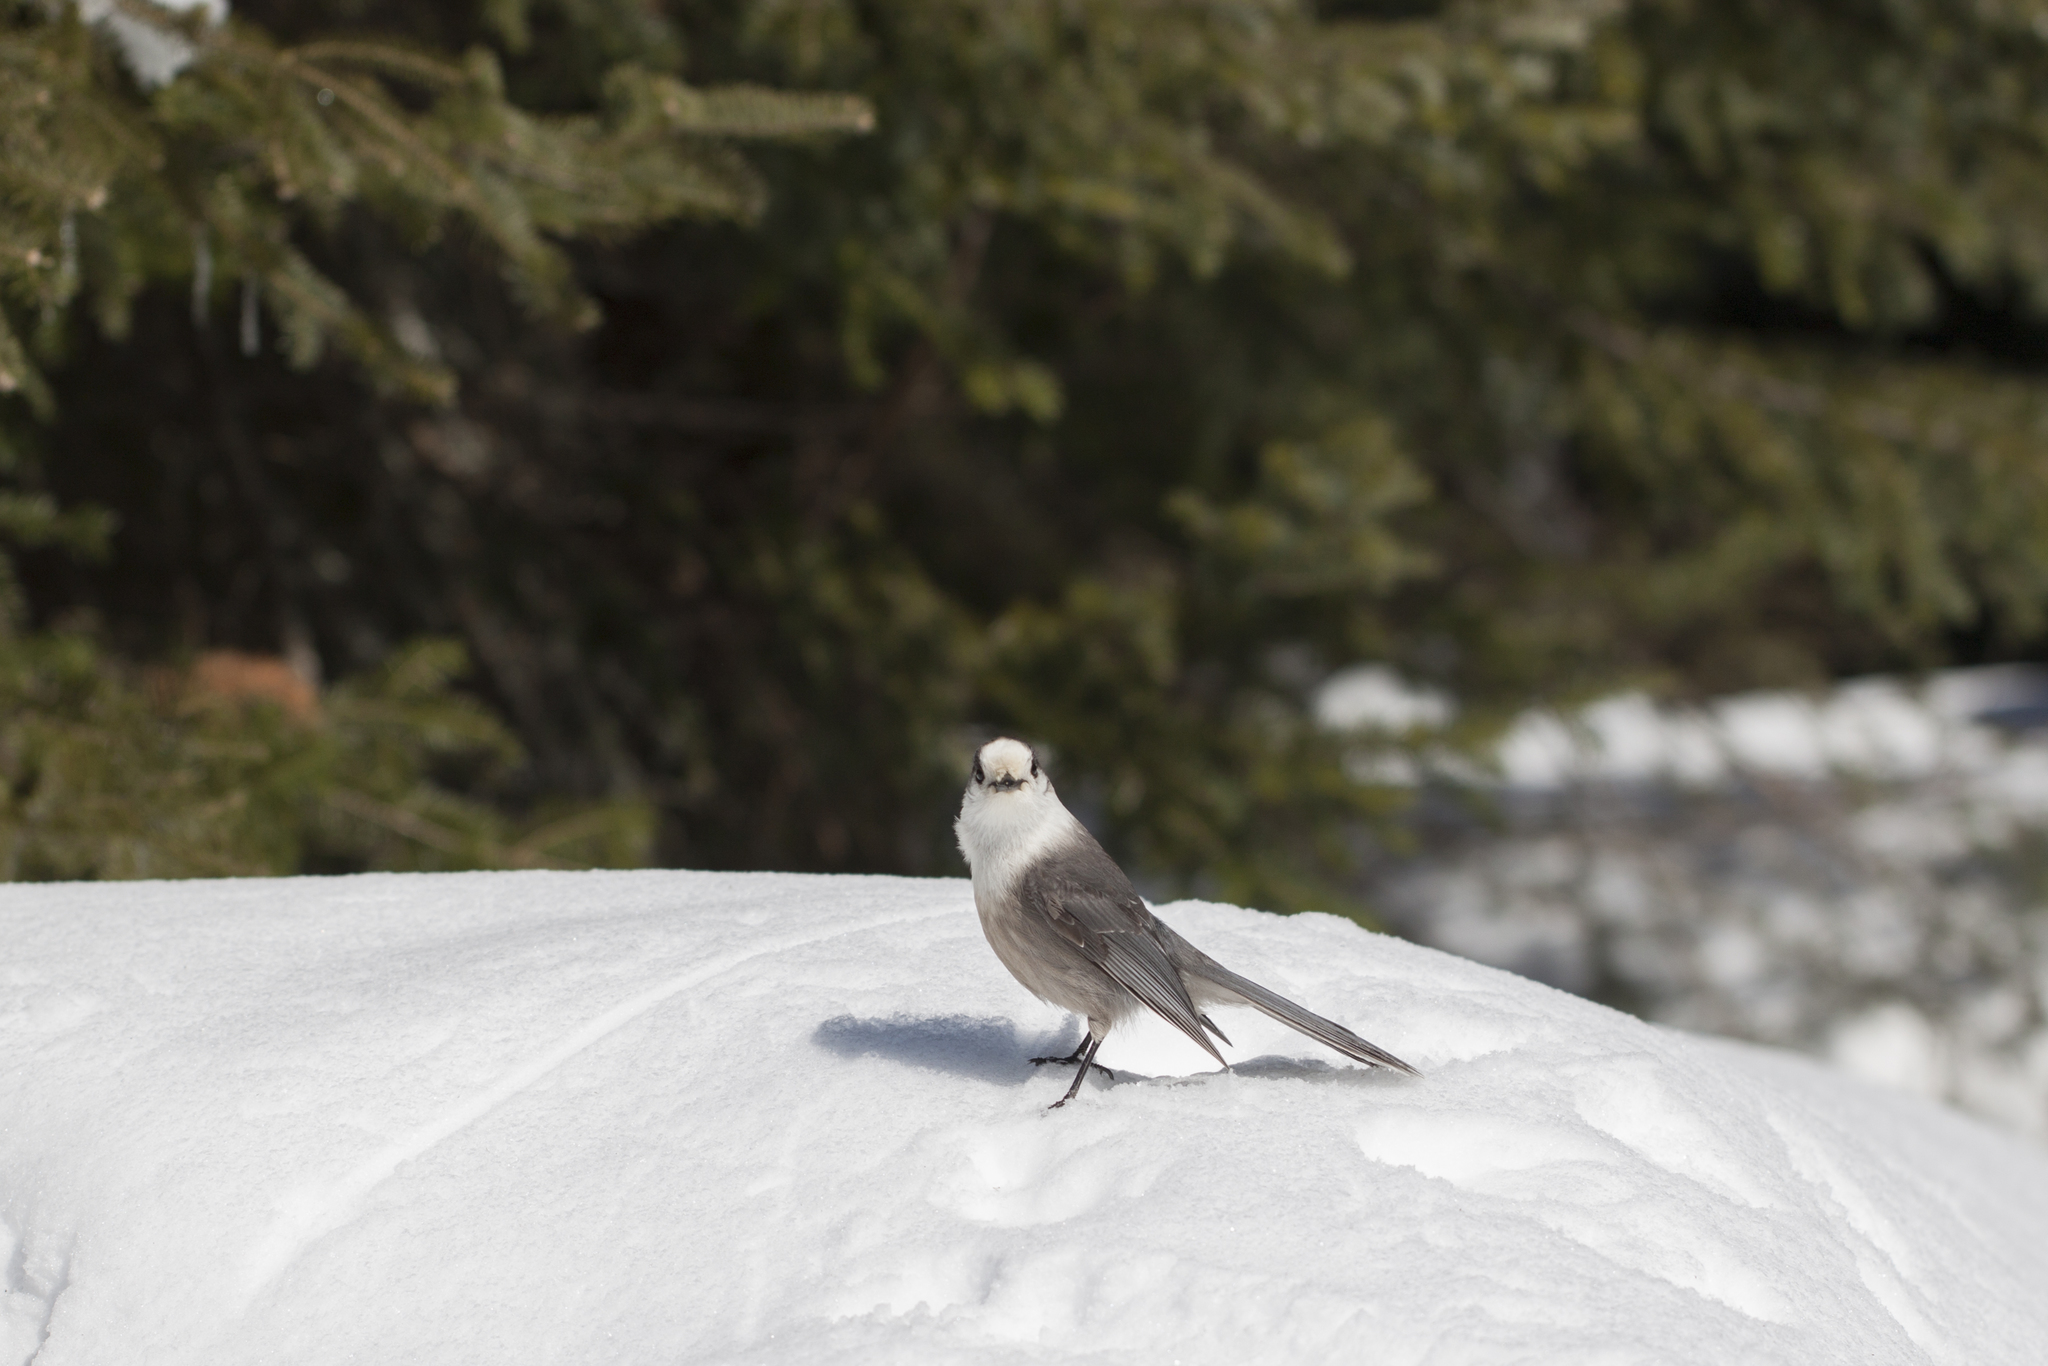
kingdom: Animalia
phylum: Chordata
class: Aves
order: Passeriformes
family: Corvidae
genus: Perisoreus
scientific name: Perisoreus canadensis
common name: Gray jay
